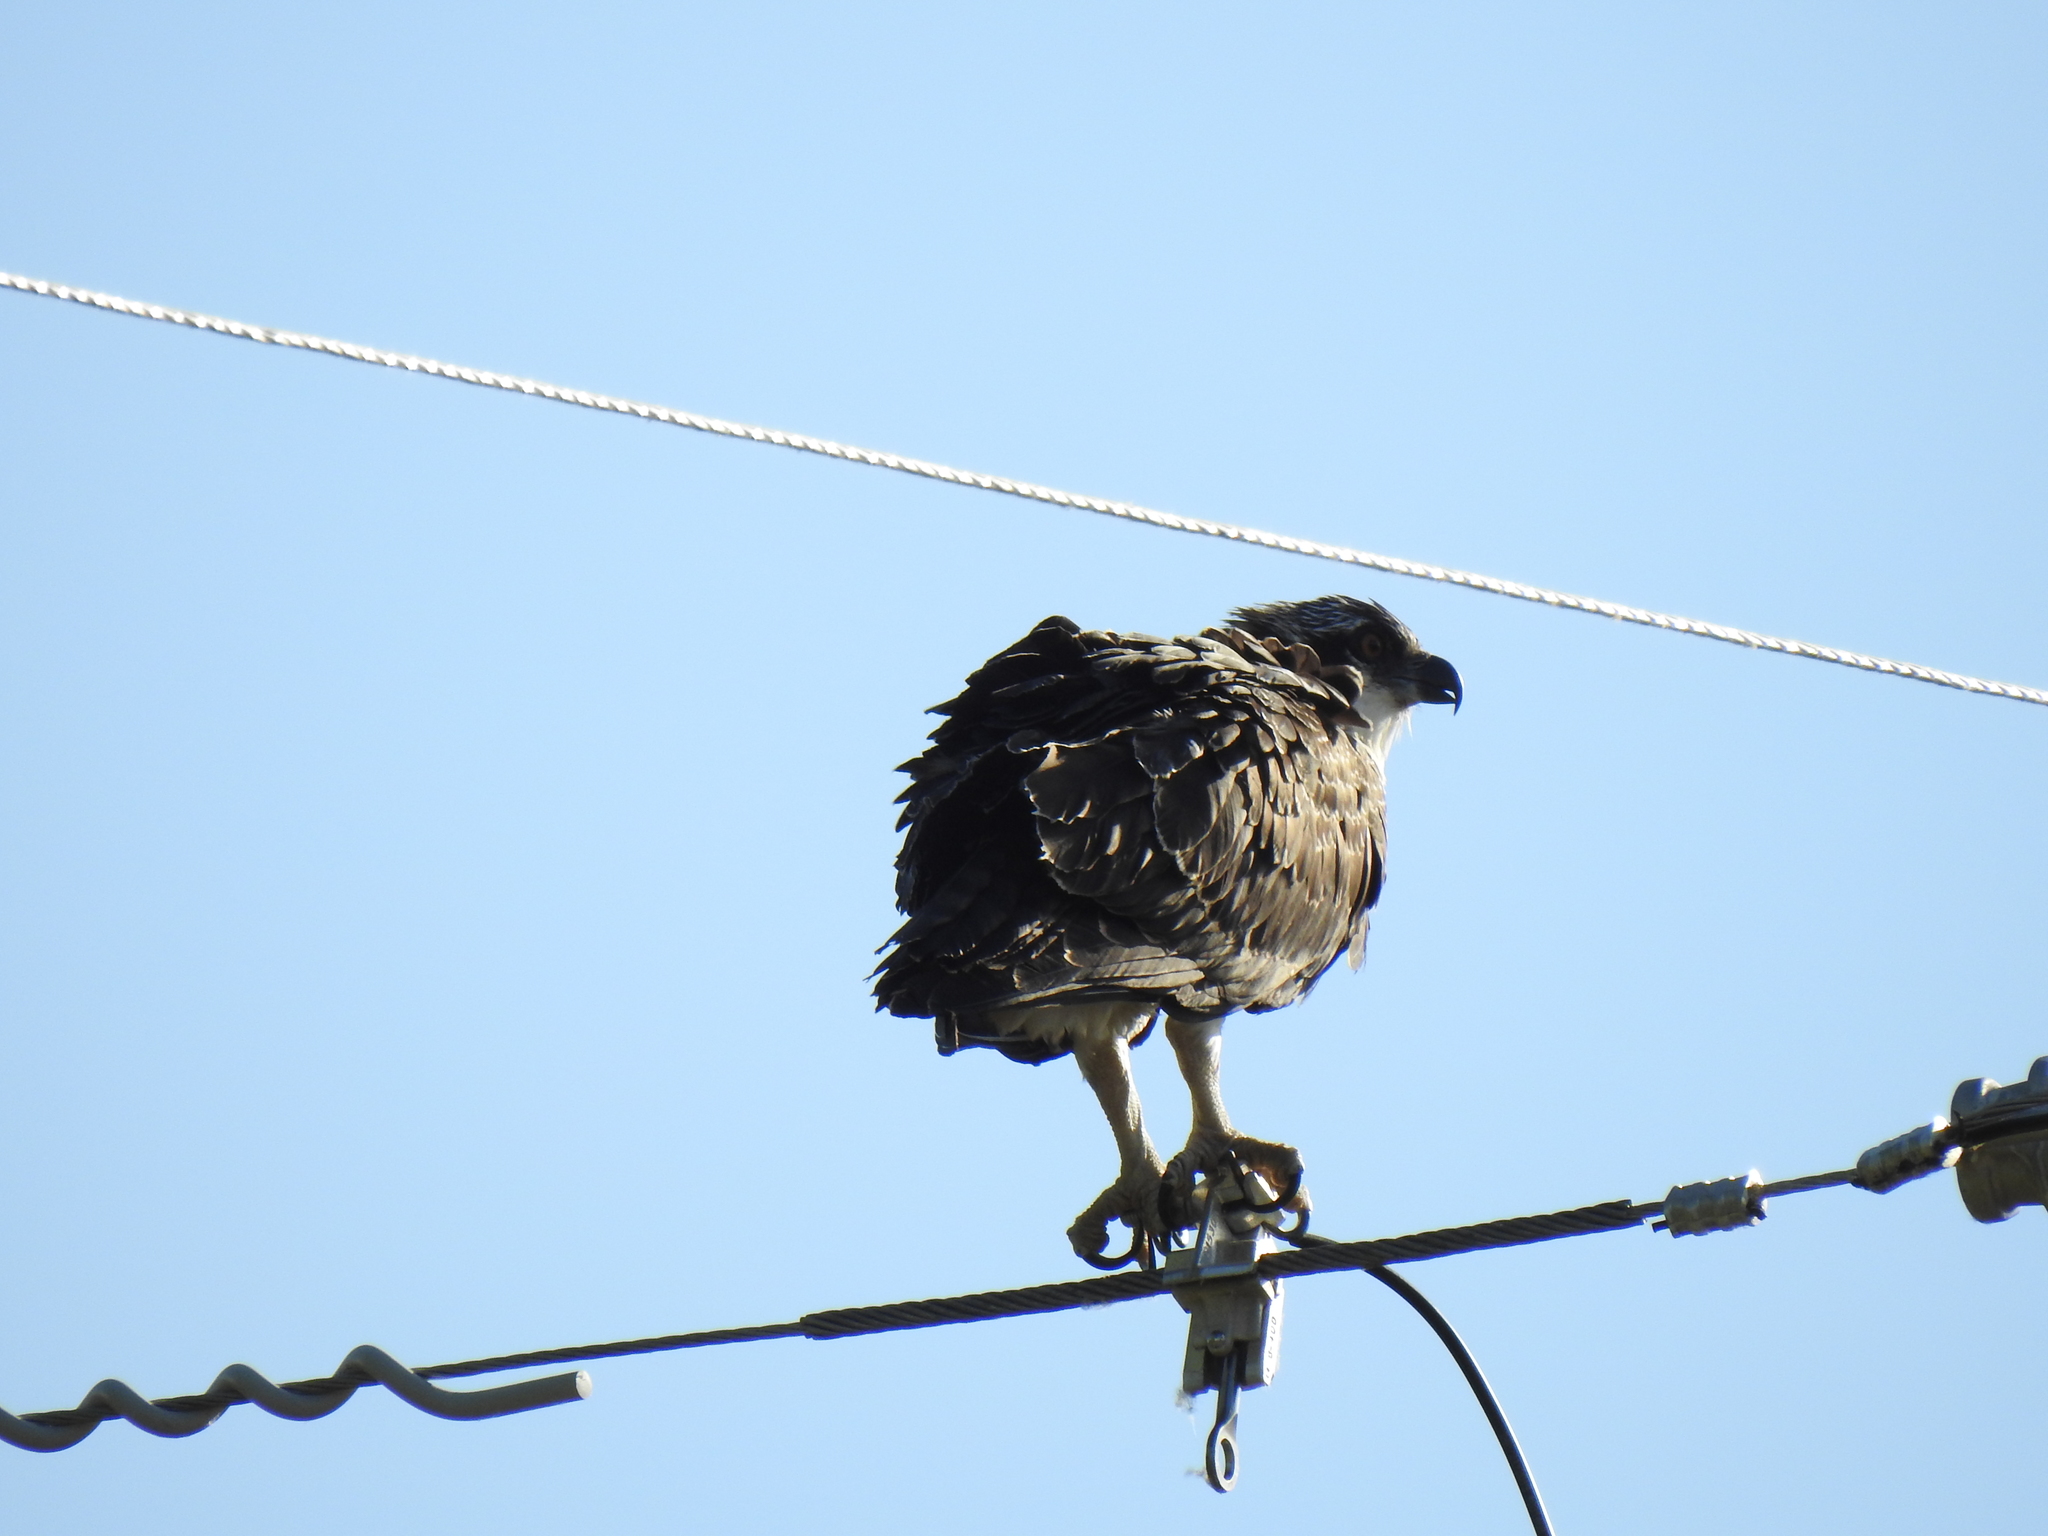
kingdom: Animalia
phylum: Chordata
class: Aves
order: Accipitriformes
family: Pandionidae
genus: Pandion
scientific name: Pandion haliaetus
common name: Osprey
